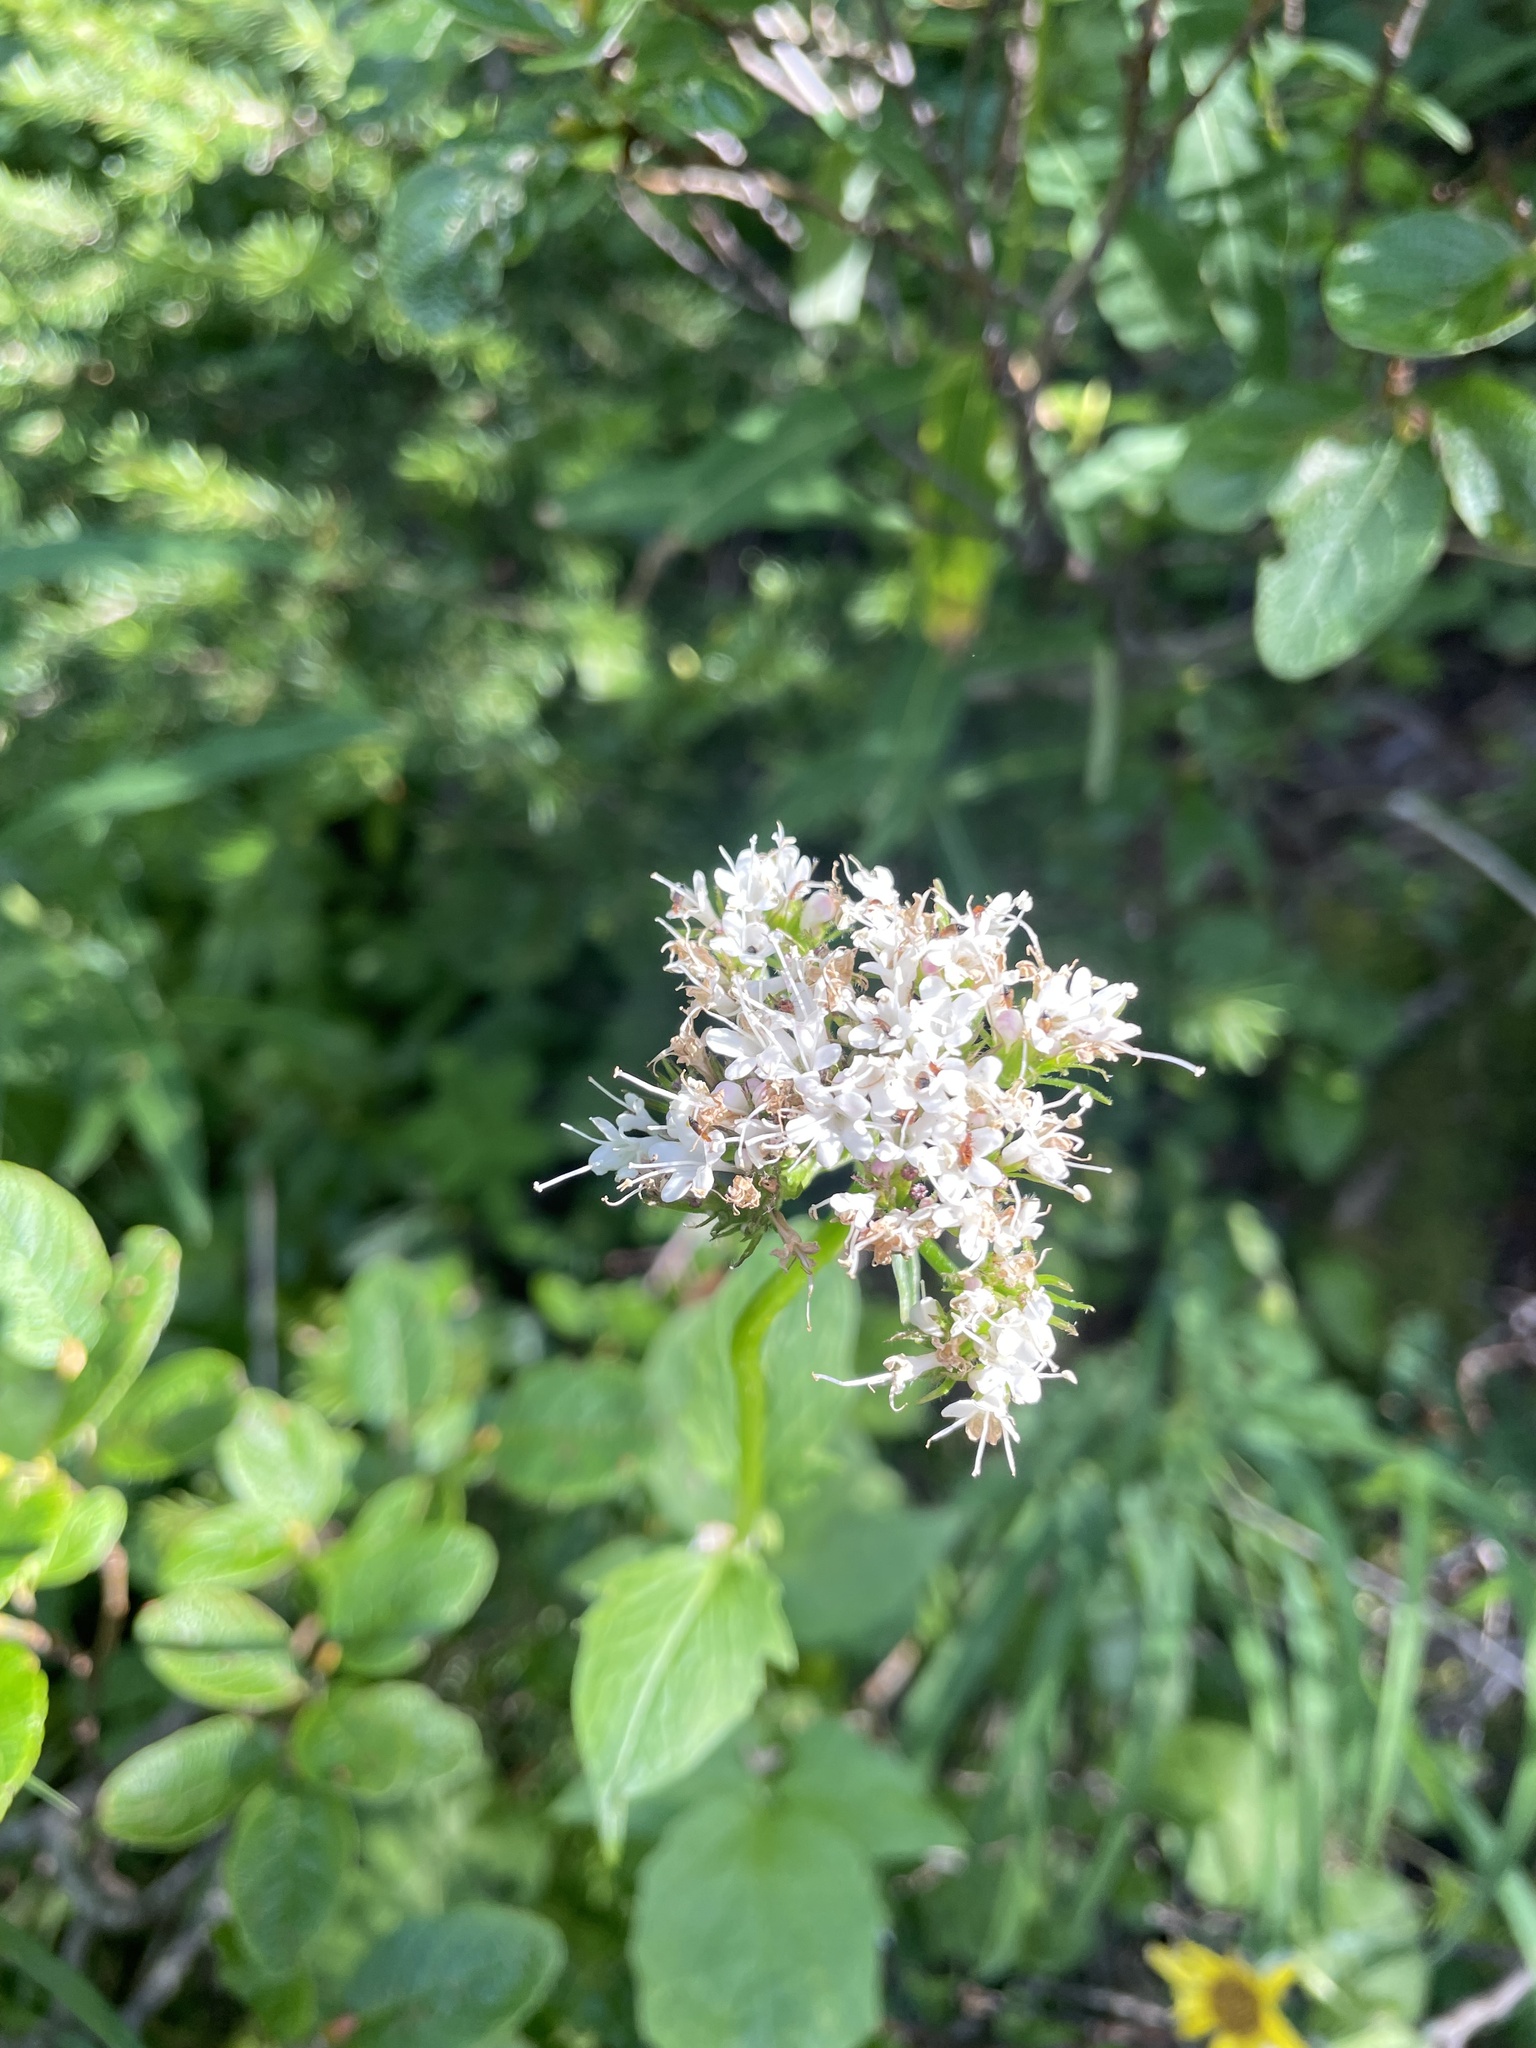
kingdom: Plantae
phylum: Tracheophyta
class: Magnoliopsida
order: Dipsacales
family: Caprifoliaceae
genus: Valeriana
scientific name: Valeriana sitchensis
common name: Pacific valerian
